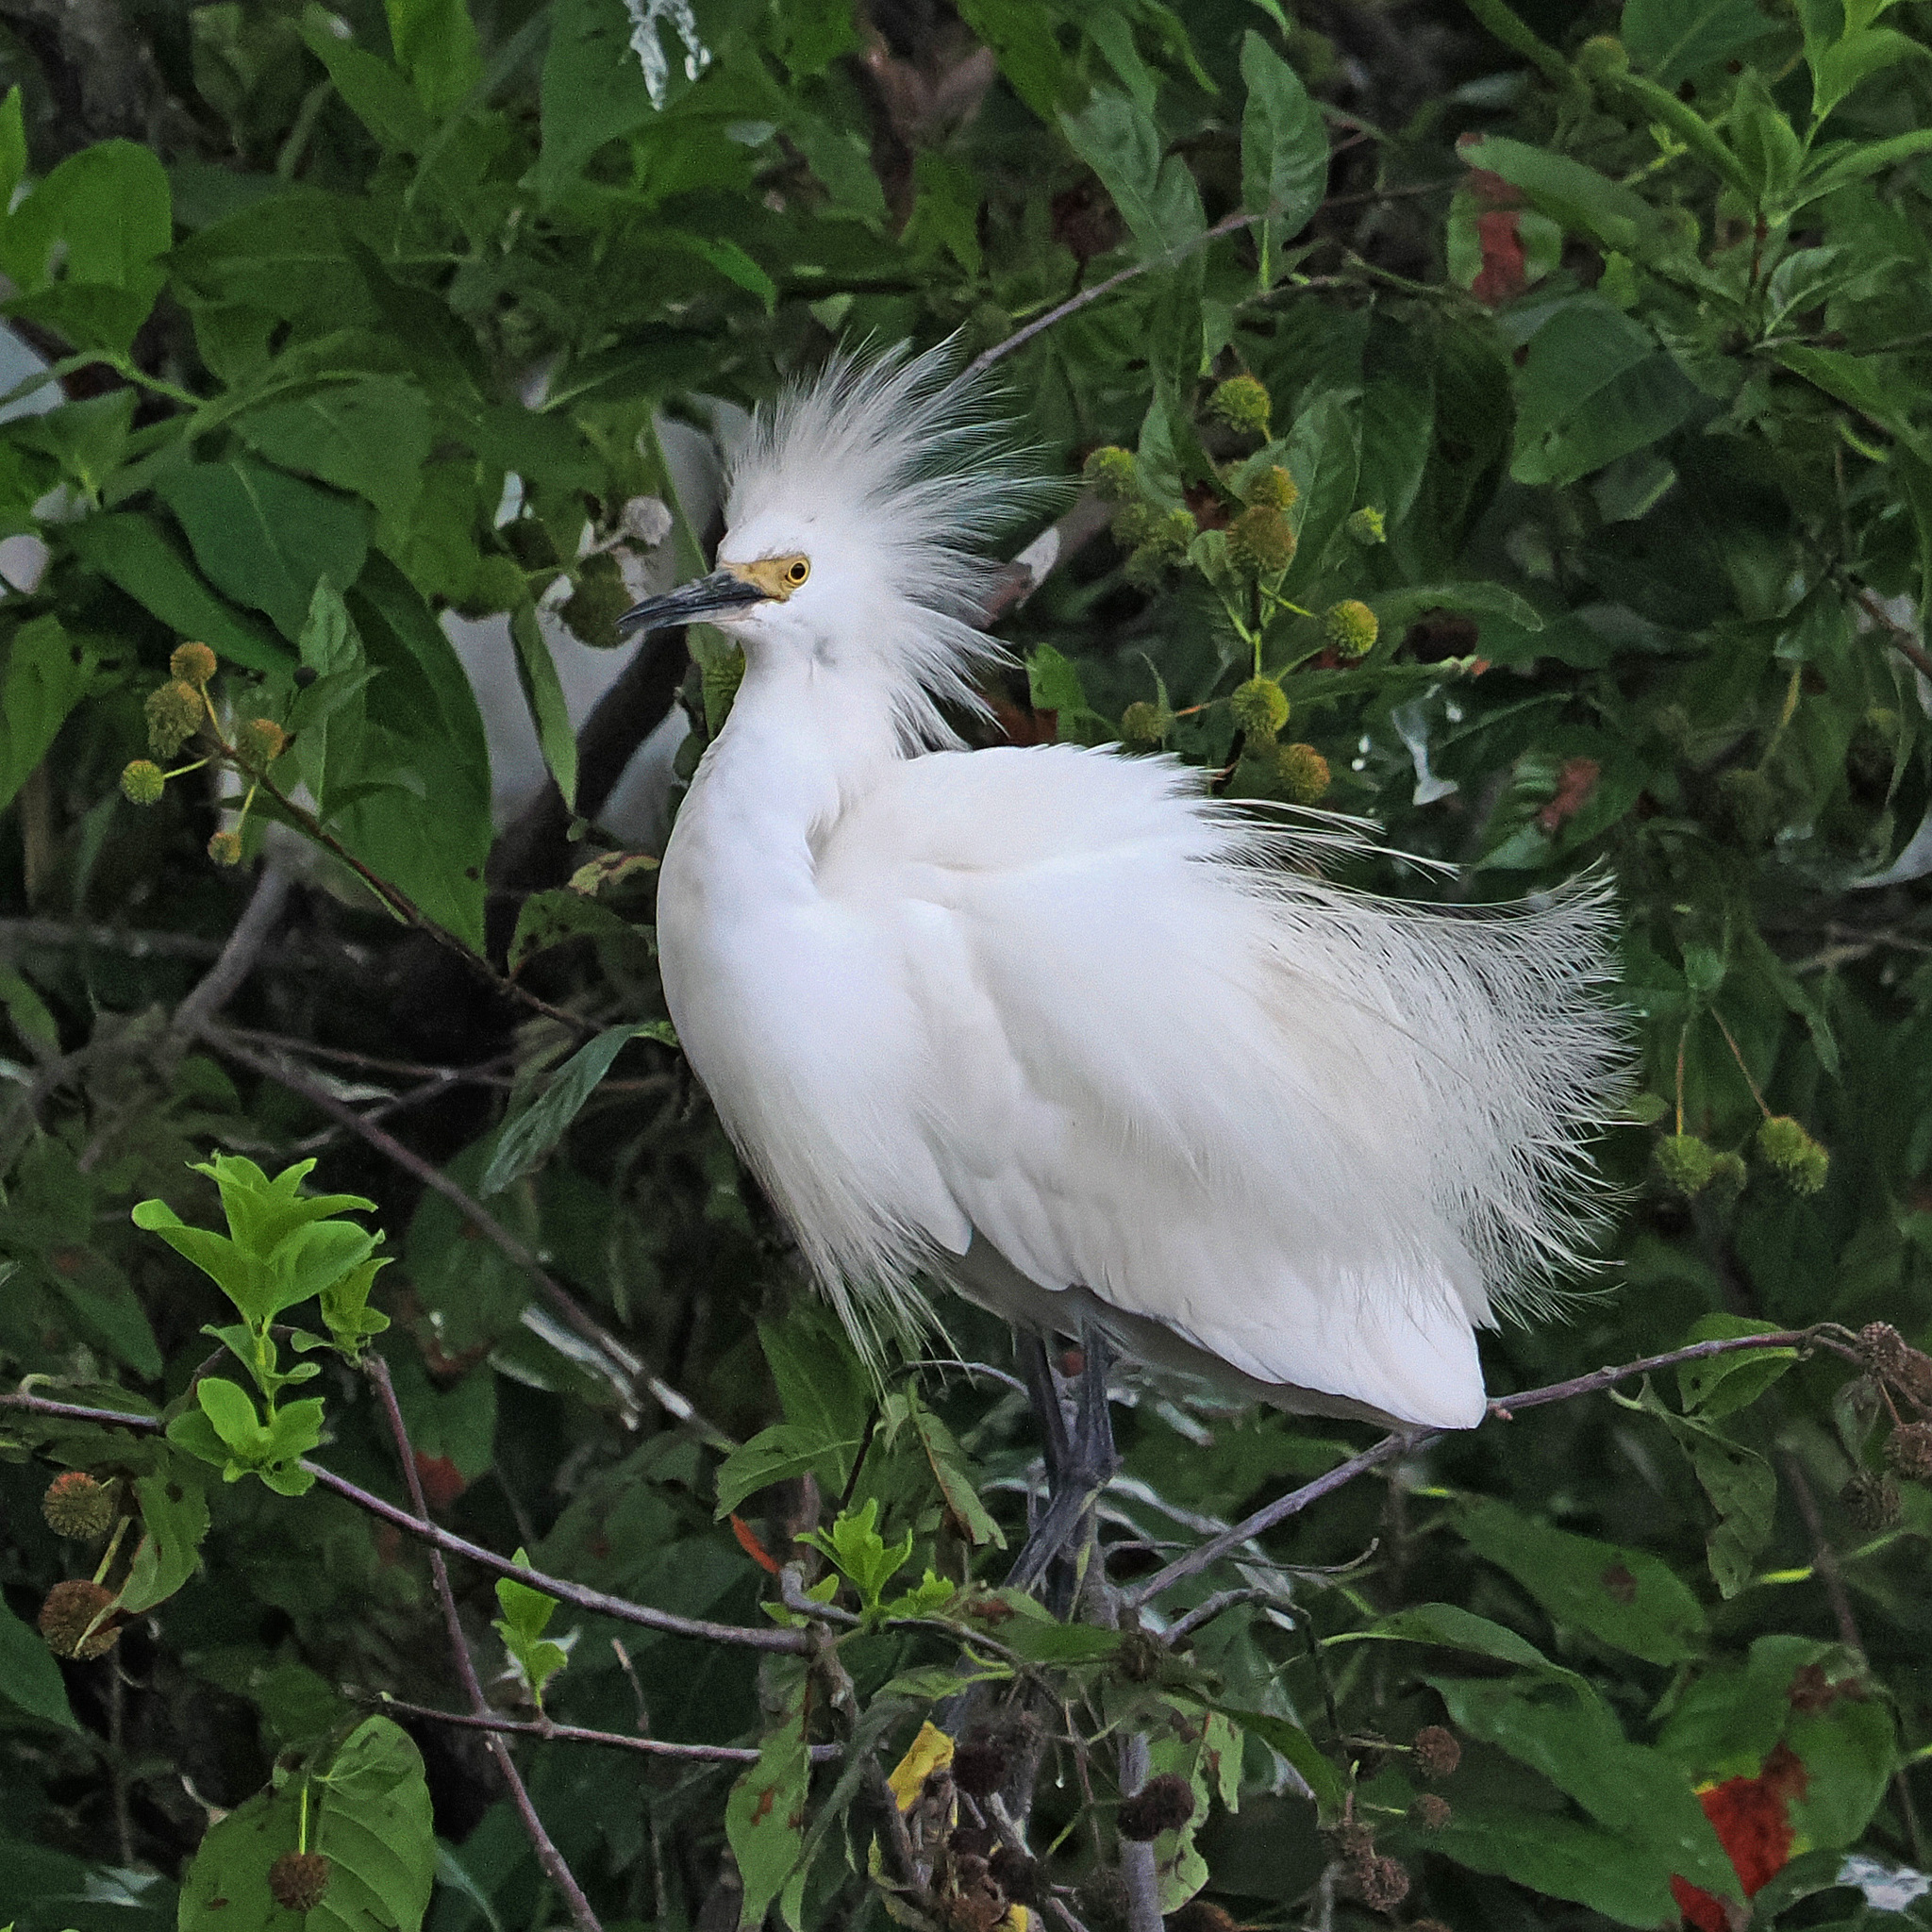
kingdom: Animalia
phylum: Chordata
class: Aves
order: Pelecaniformes
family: Ardeidae
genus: Egretta
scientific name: Egretta thula
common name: Snowy egret
